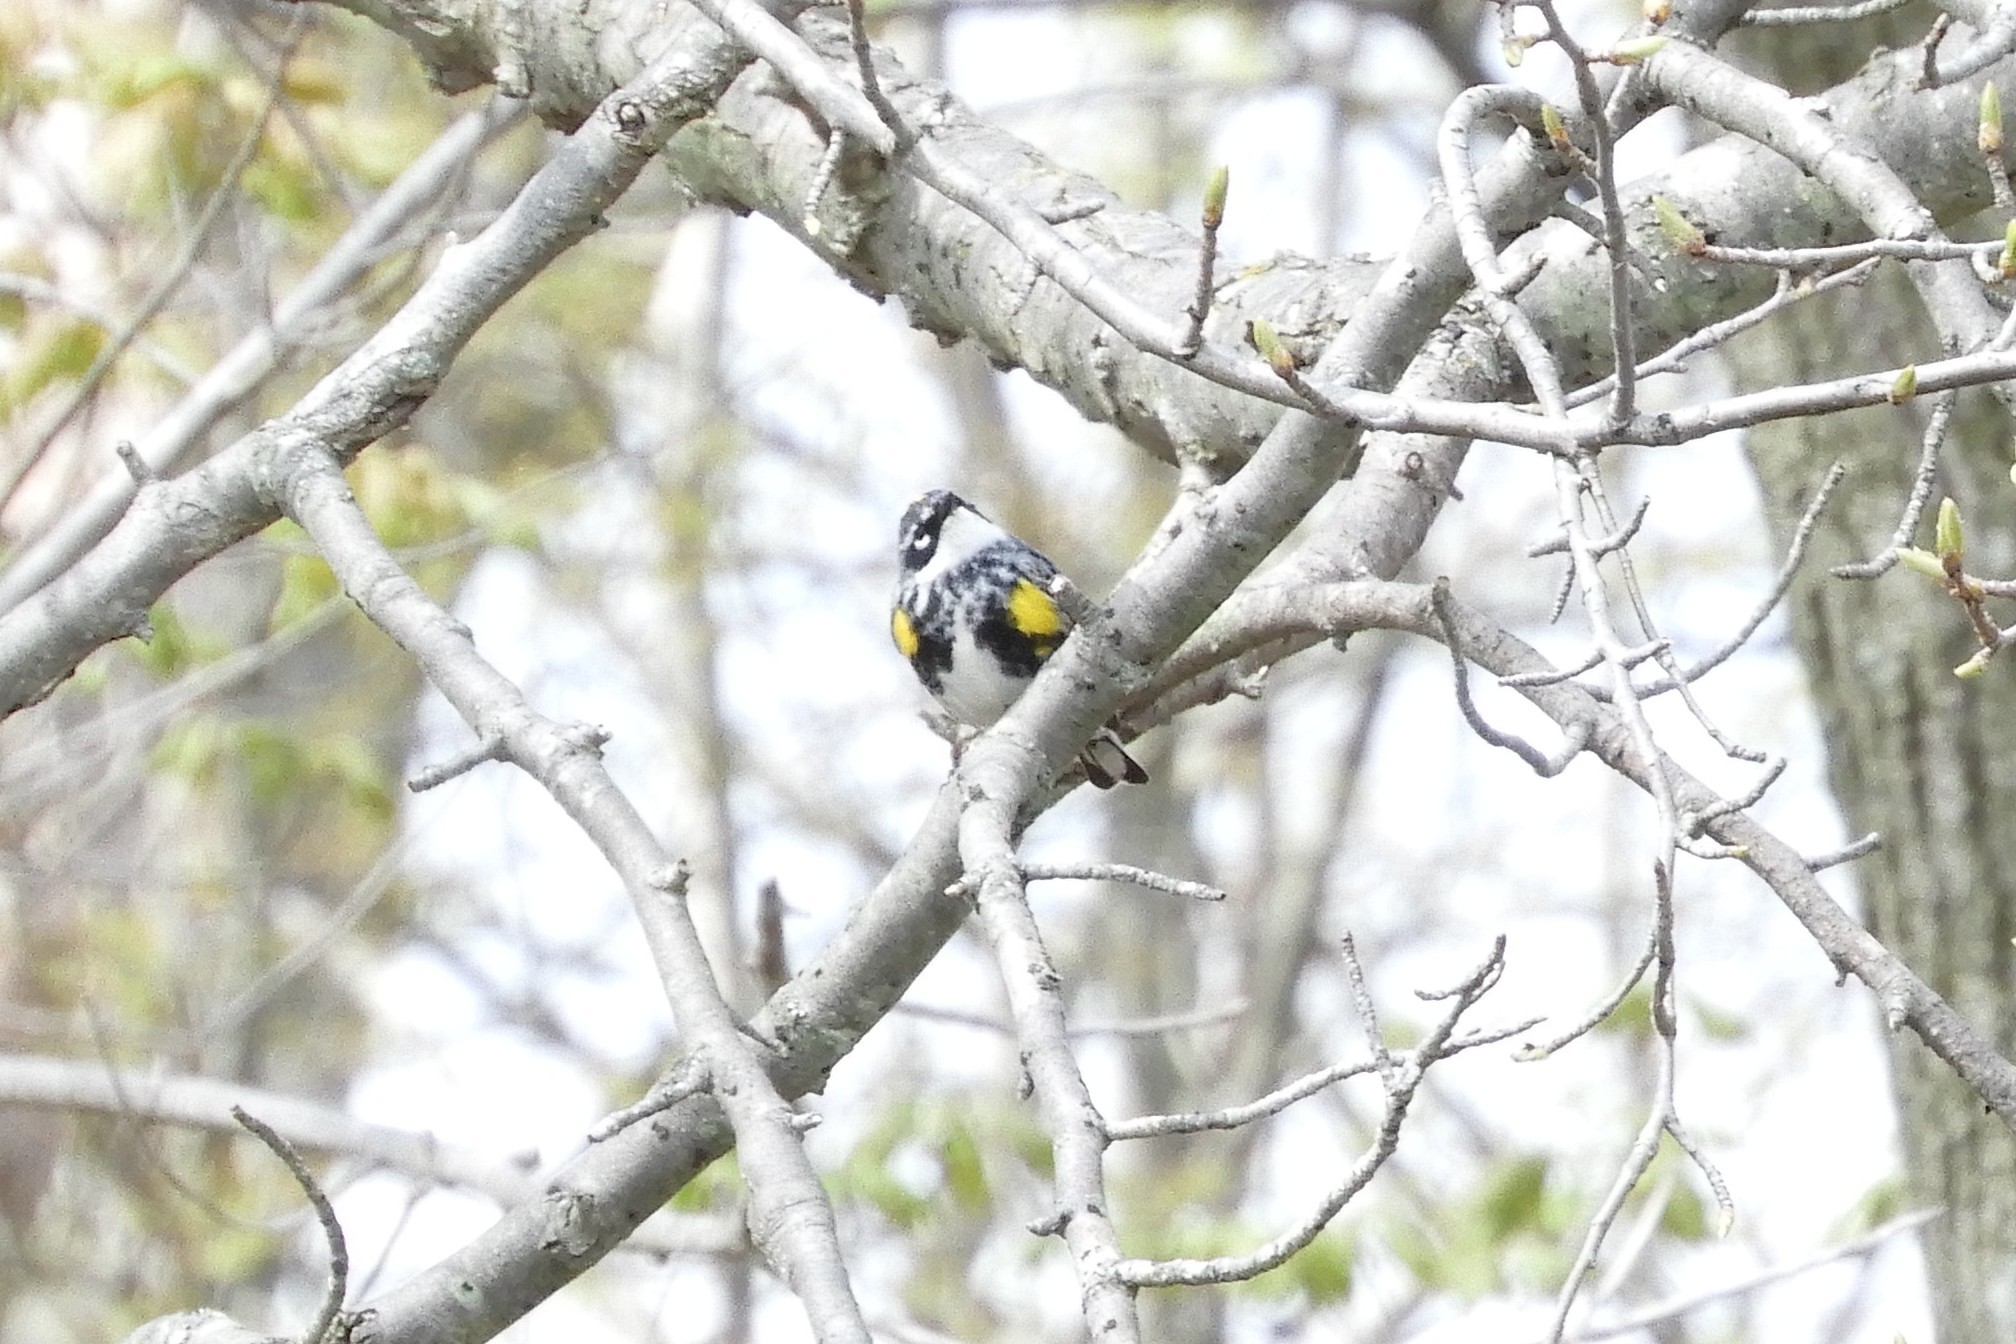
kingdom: Animalia
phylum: Chordata
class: Aves
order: Passeriformes
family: Parulidae
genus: Setophaga
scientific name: Setophaga coronata
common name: Myrtle warbler
